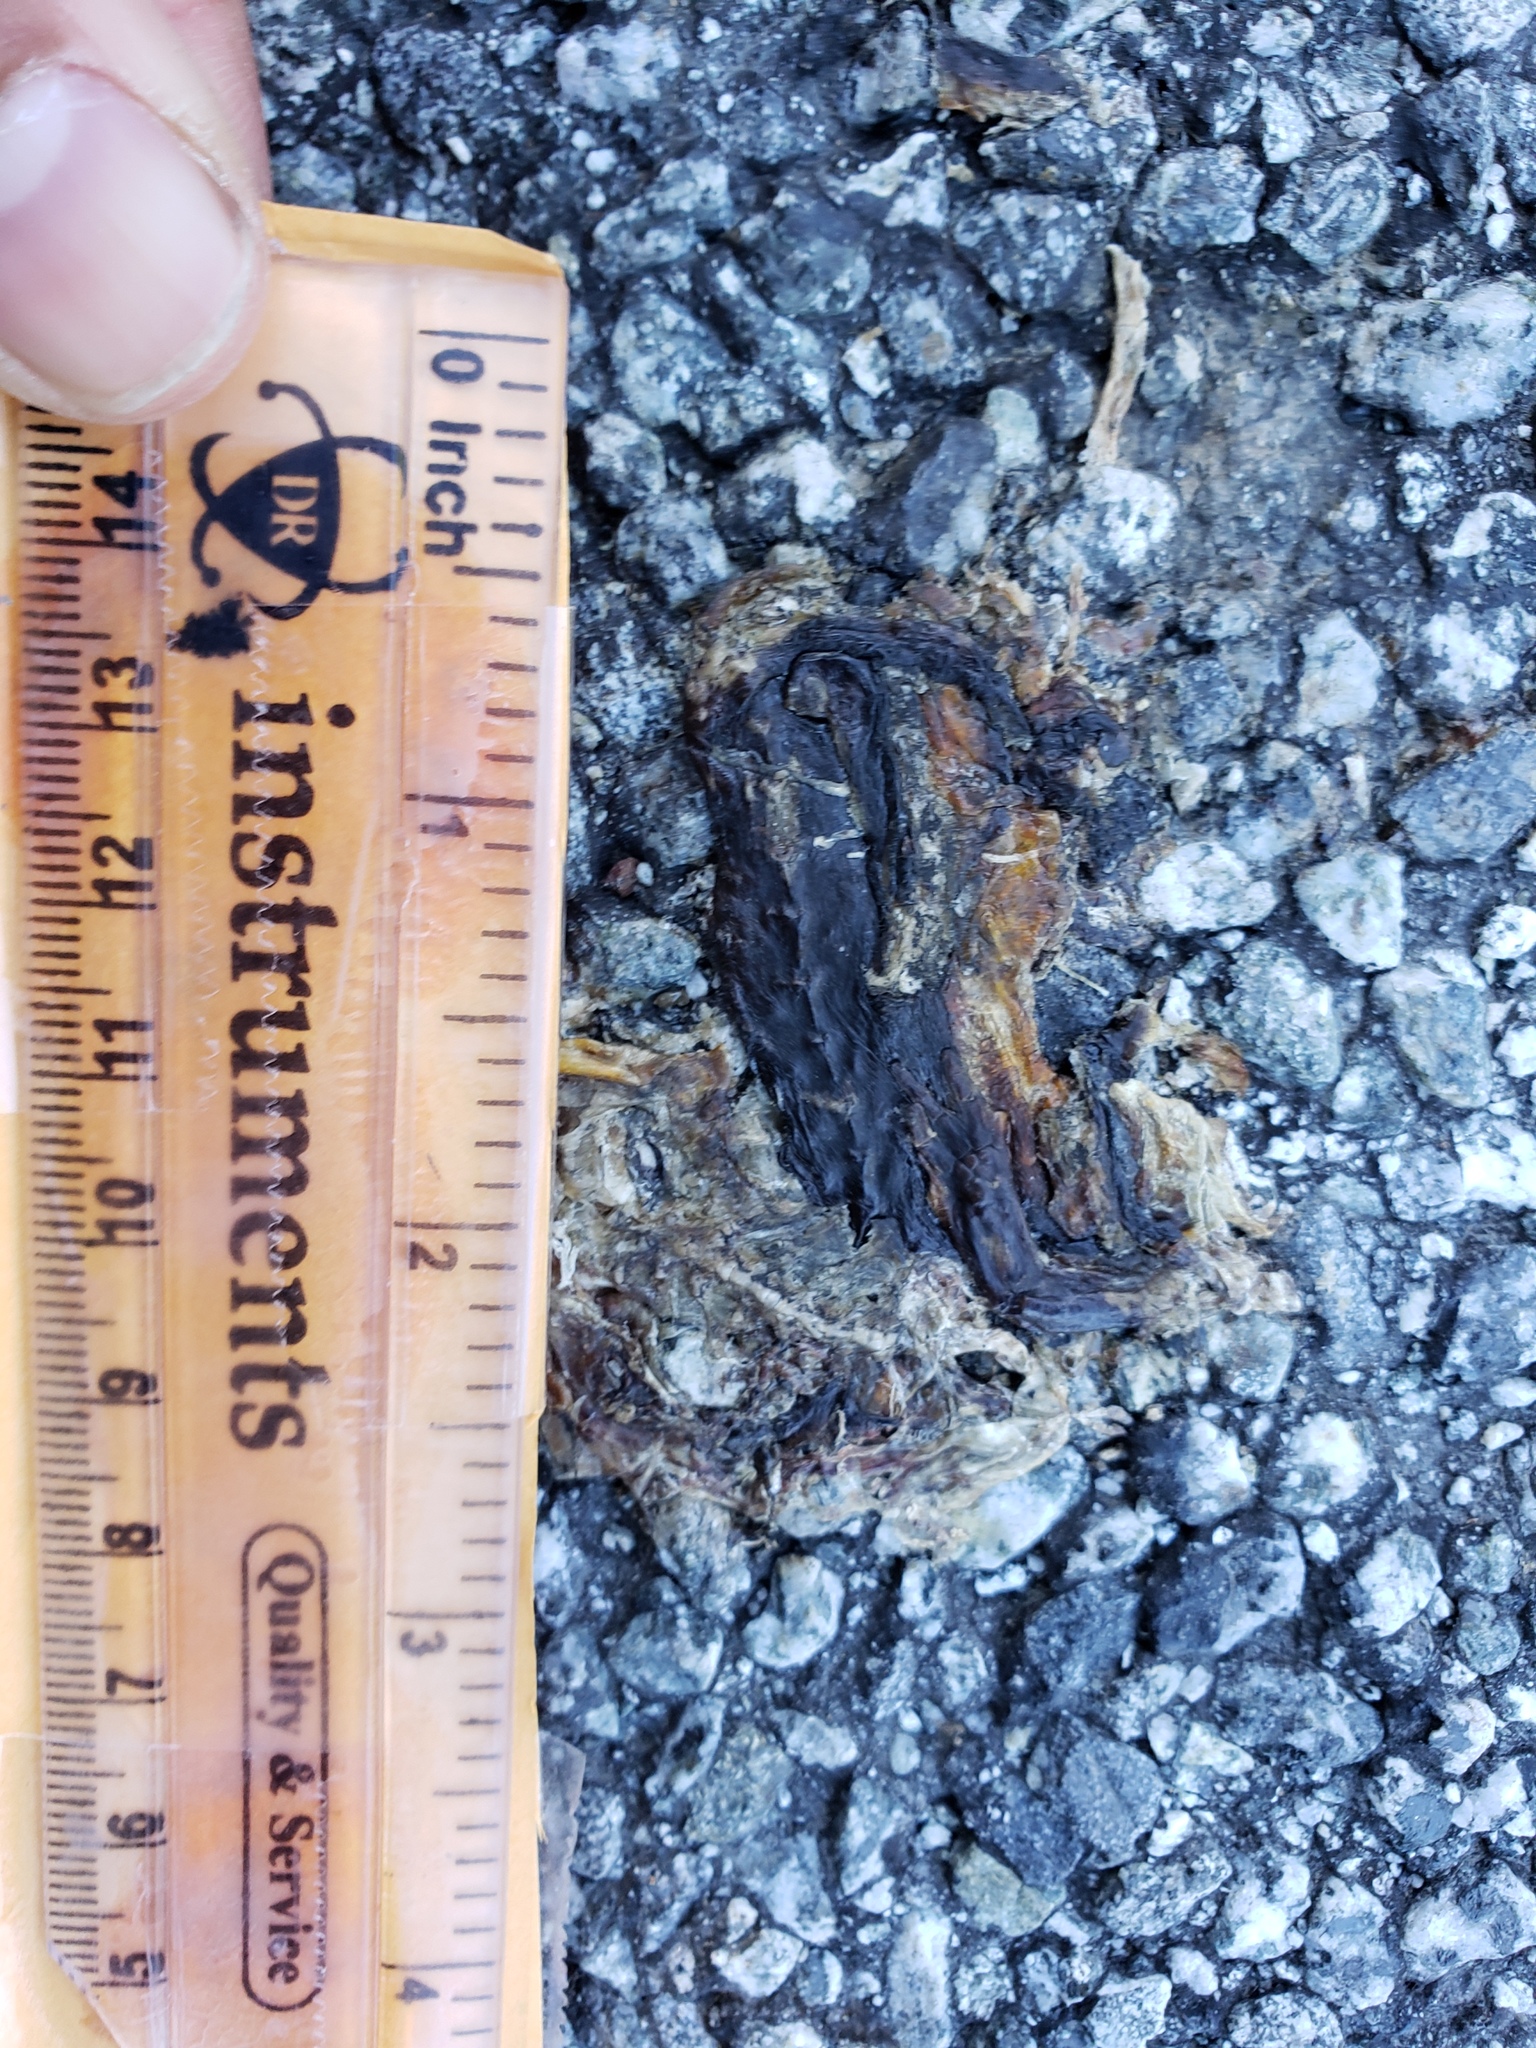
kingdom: Animalia
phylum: Chordata
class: Amphibia
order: Caudata
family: Salamandridae
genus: Taricha
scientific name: Taricha
